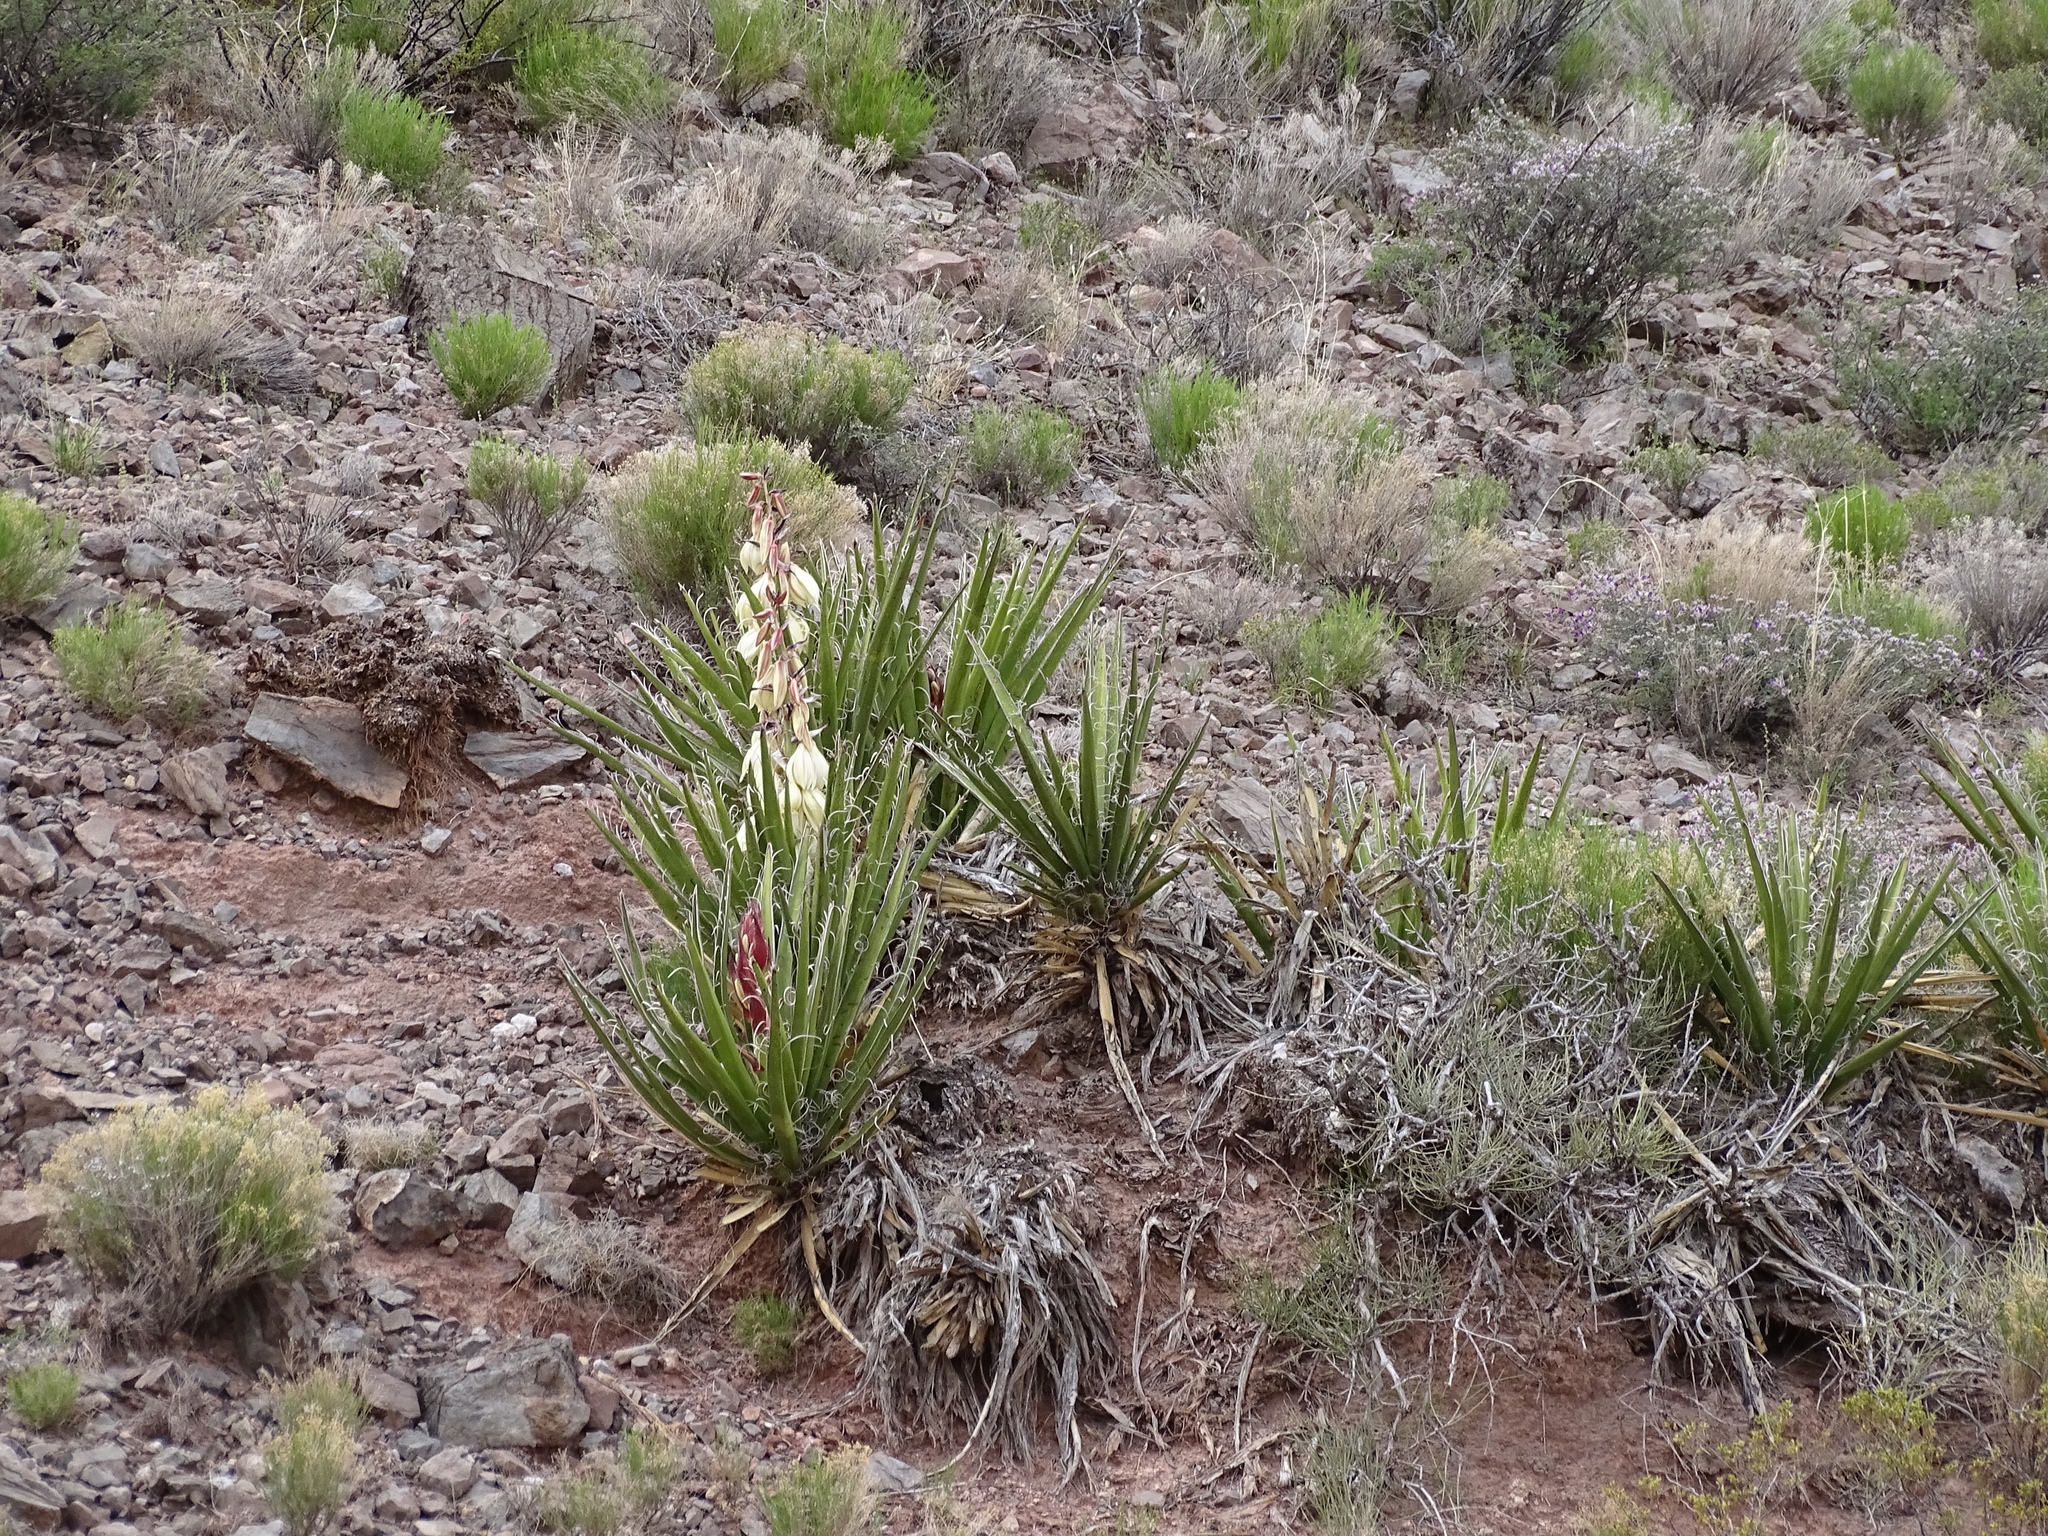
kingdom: Plantae
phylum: Tracheophyta
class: Liliopsida
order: Asparagales
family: Asparagaceae
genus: Yucca
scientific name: Yucca baccata
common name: Banana yucca
